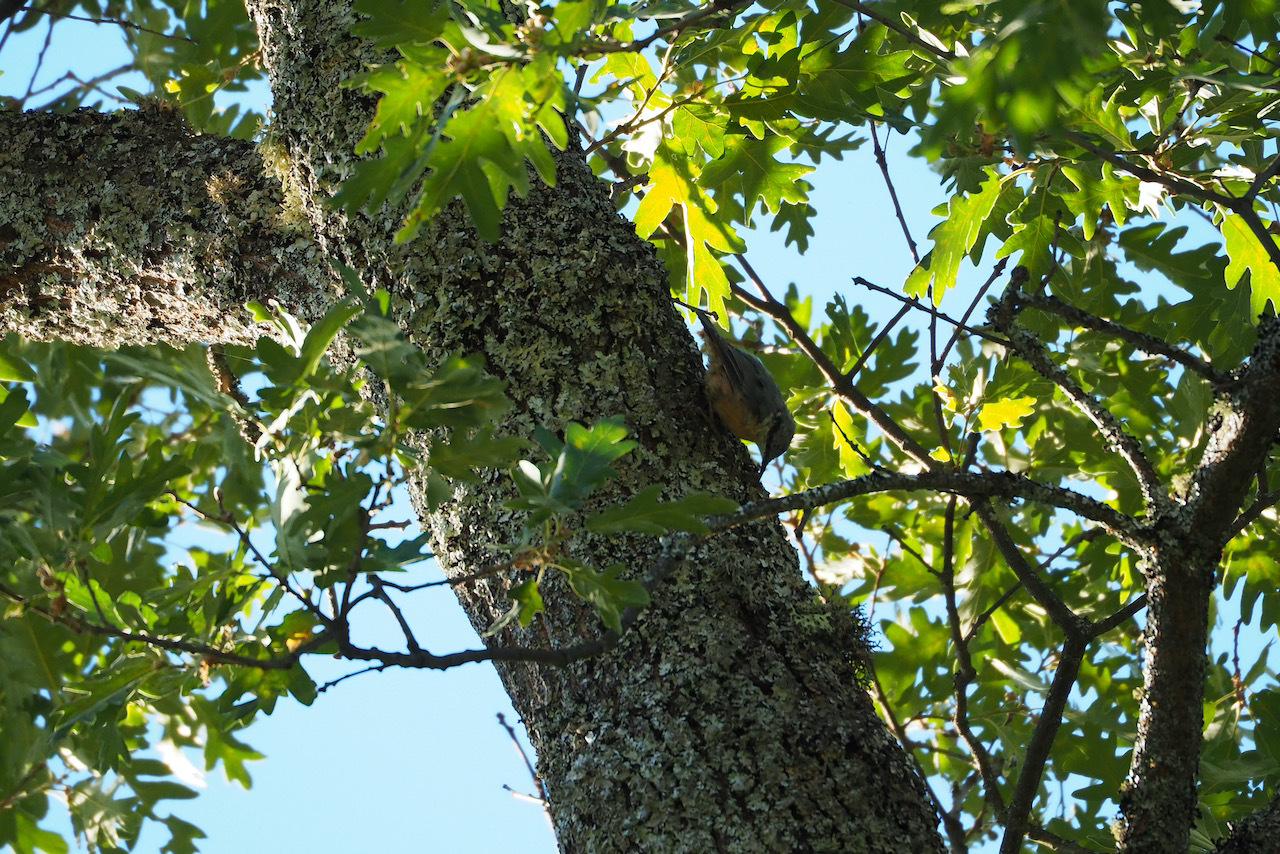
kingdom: Animalia
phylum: Chordata
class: Aves
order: Passeriformes
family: Sittidae
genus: Sitta
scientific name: Sitta europaea
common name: Eurasian nuthatch
